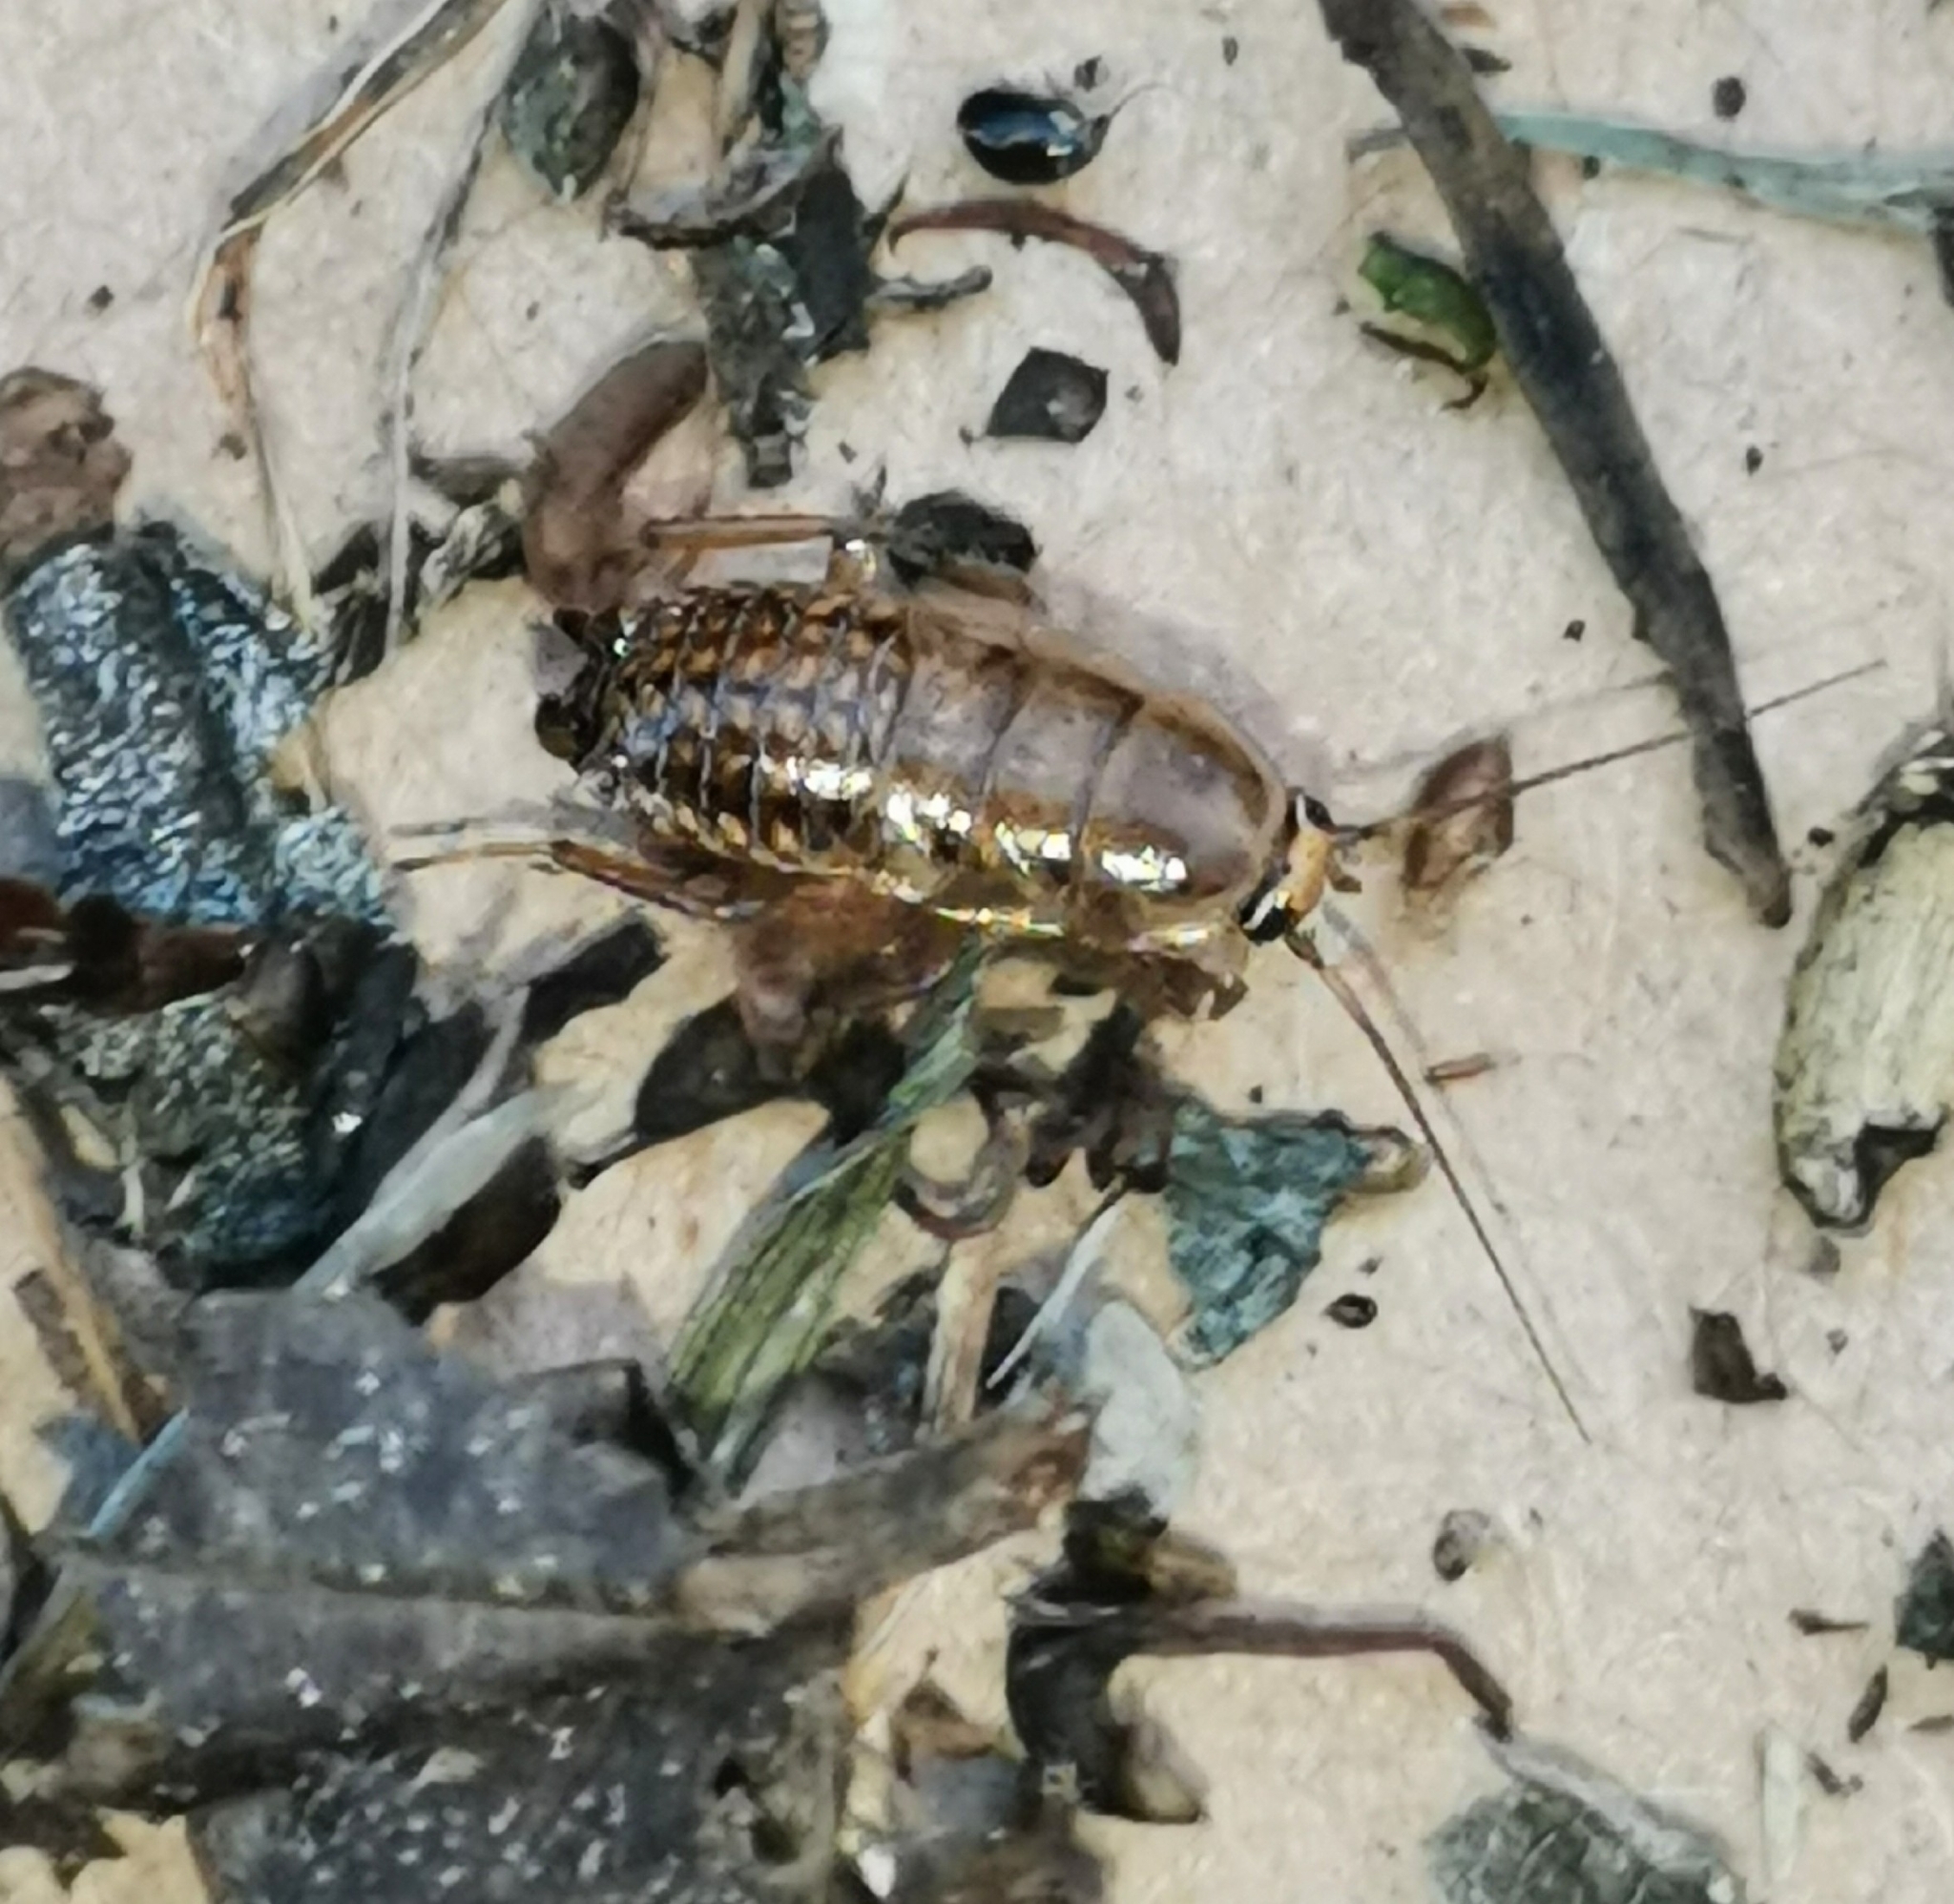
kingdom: Animalia
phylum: Arthropoda
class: Insecta
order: Blattodea
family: Ectobiidae
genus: Ectobius
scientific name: Ectobius lapponicus
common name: Dusky cockroach
